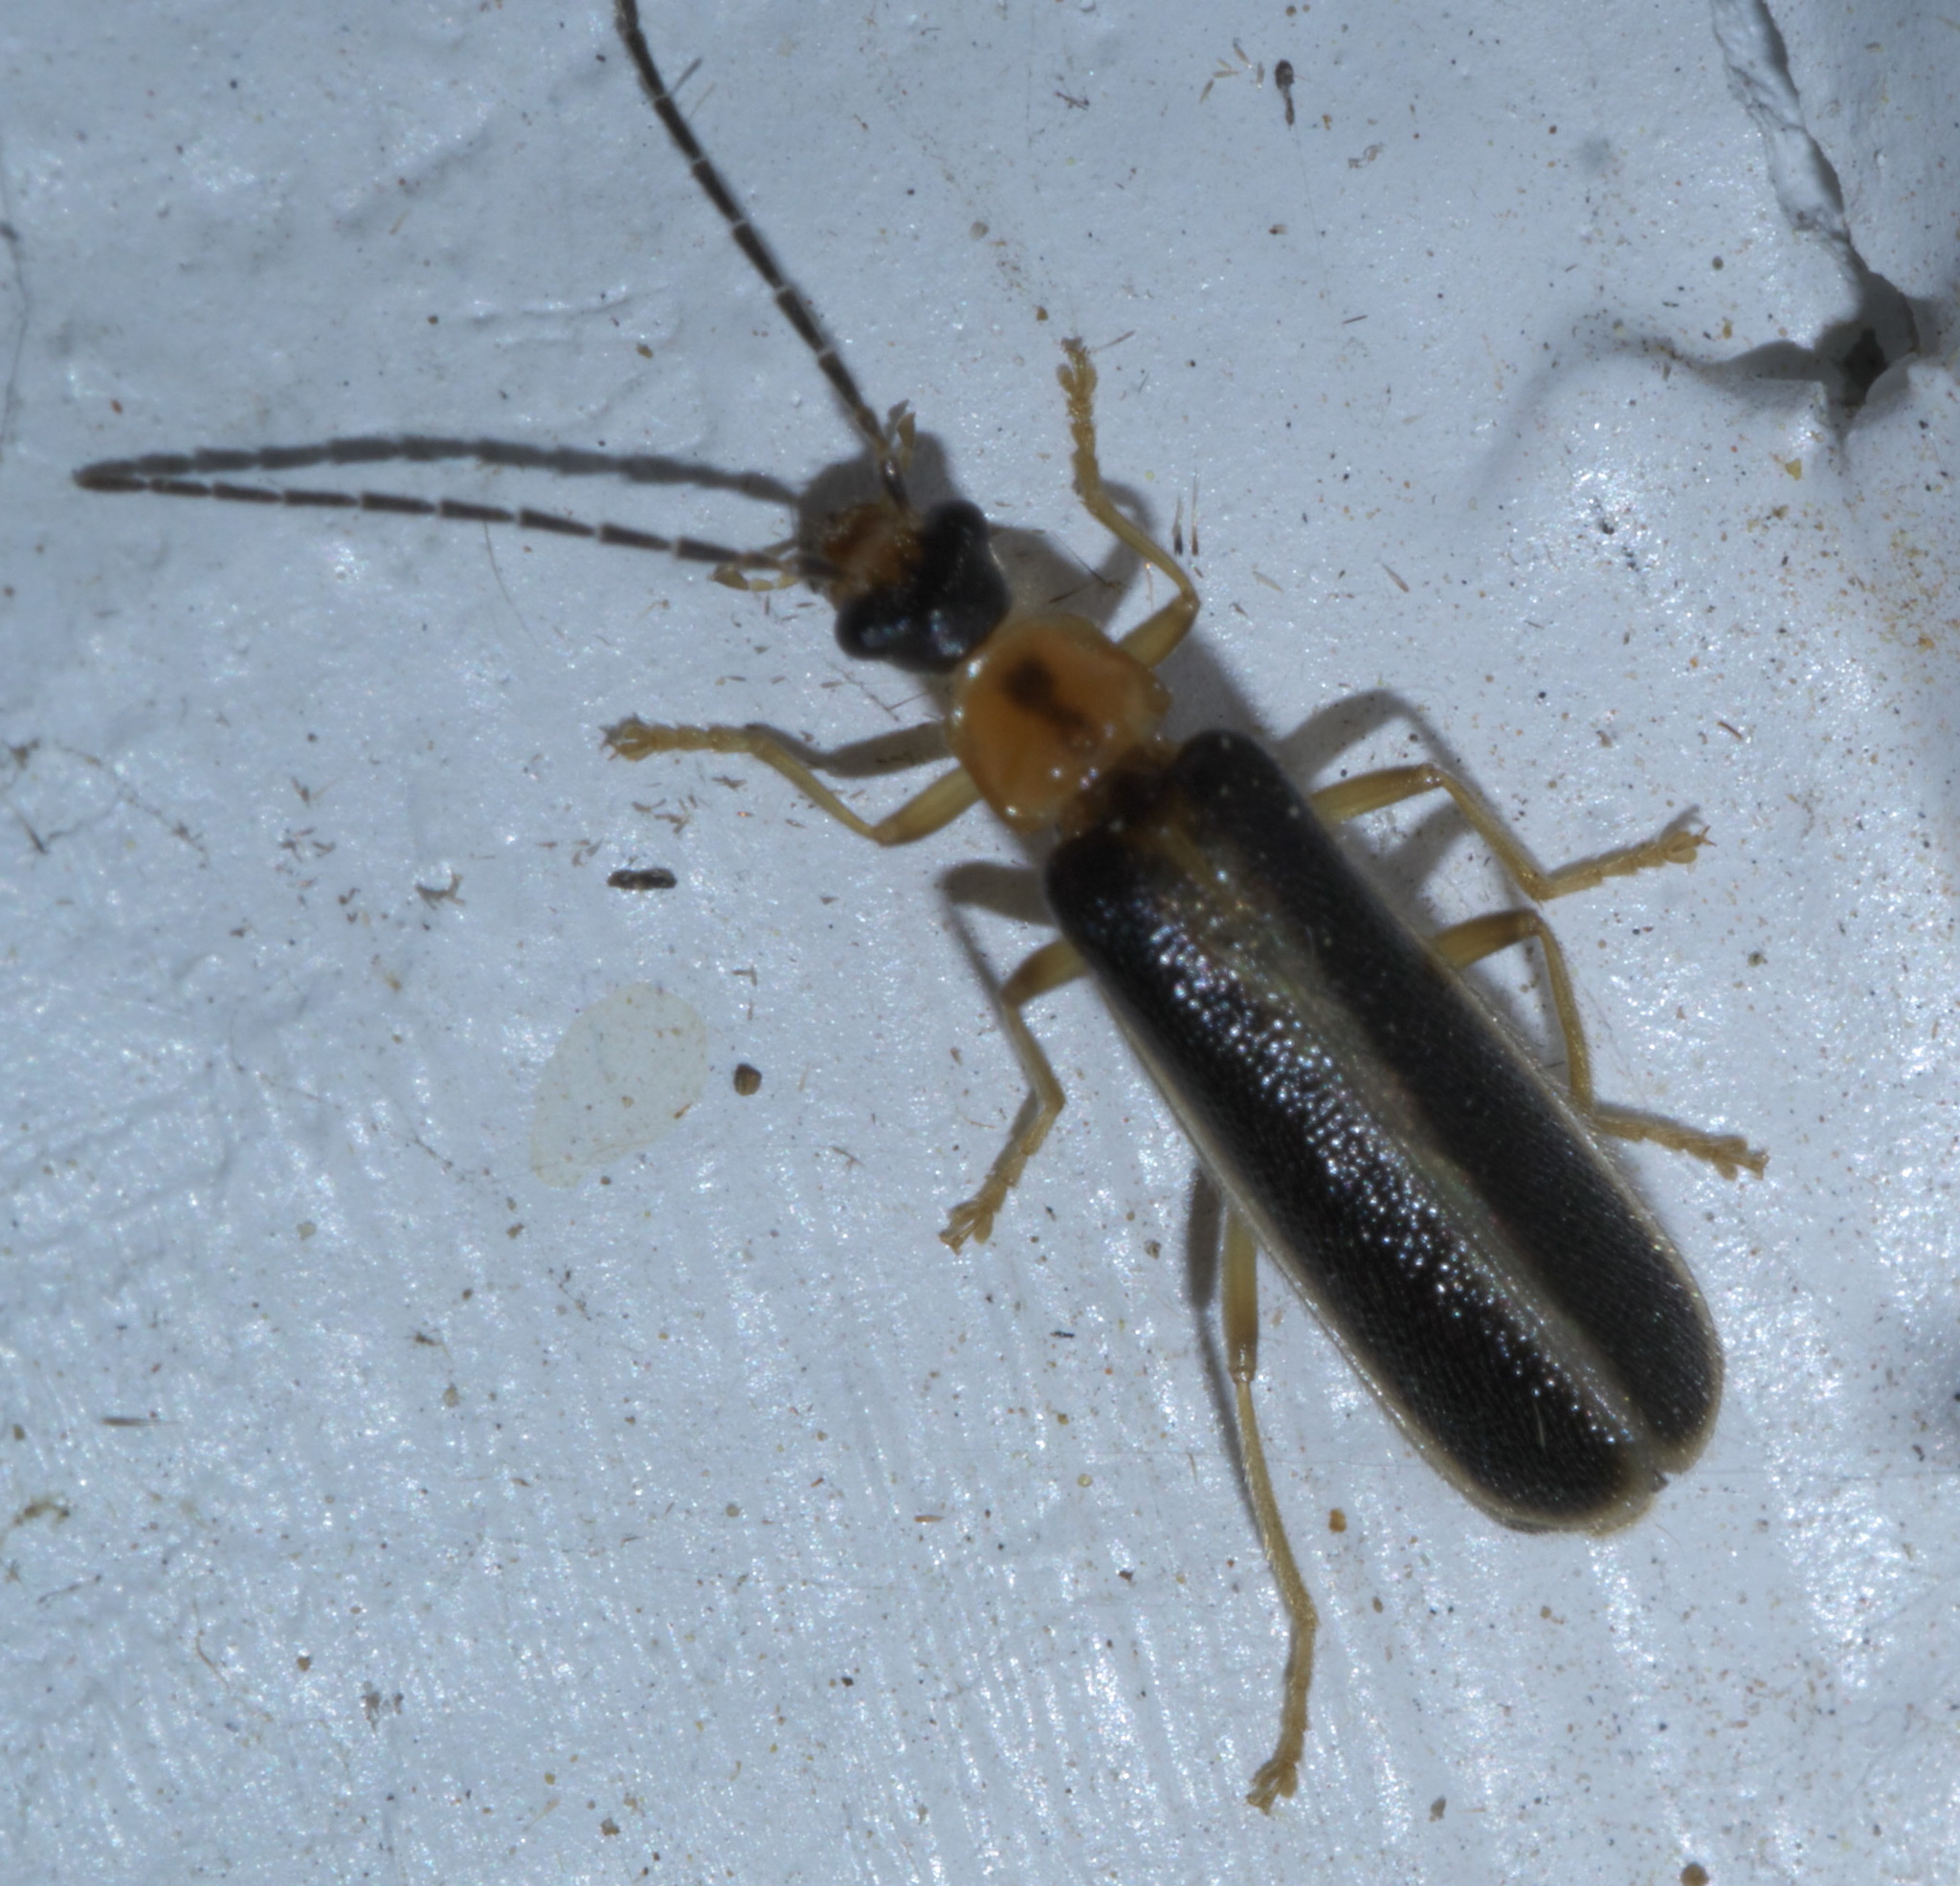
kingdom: Animalia
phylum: Arthropoda
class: Insecta
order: Coleoptera
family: Cantharidae
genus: Rhagonycha
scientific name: Rhagonycha scitula
